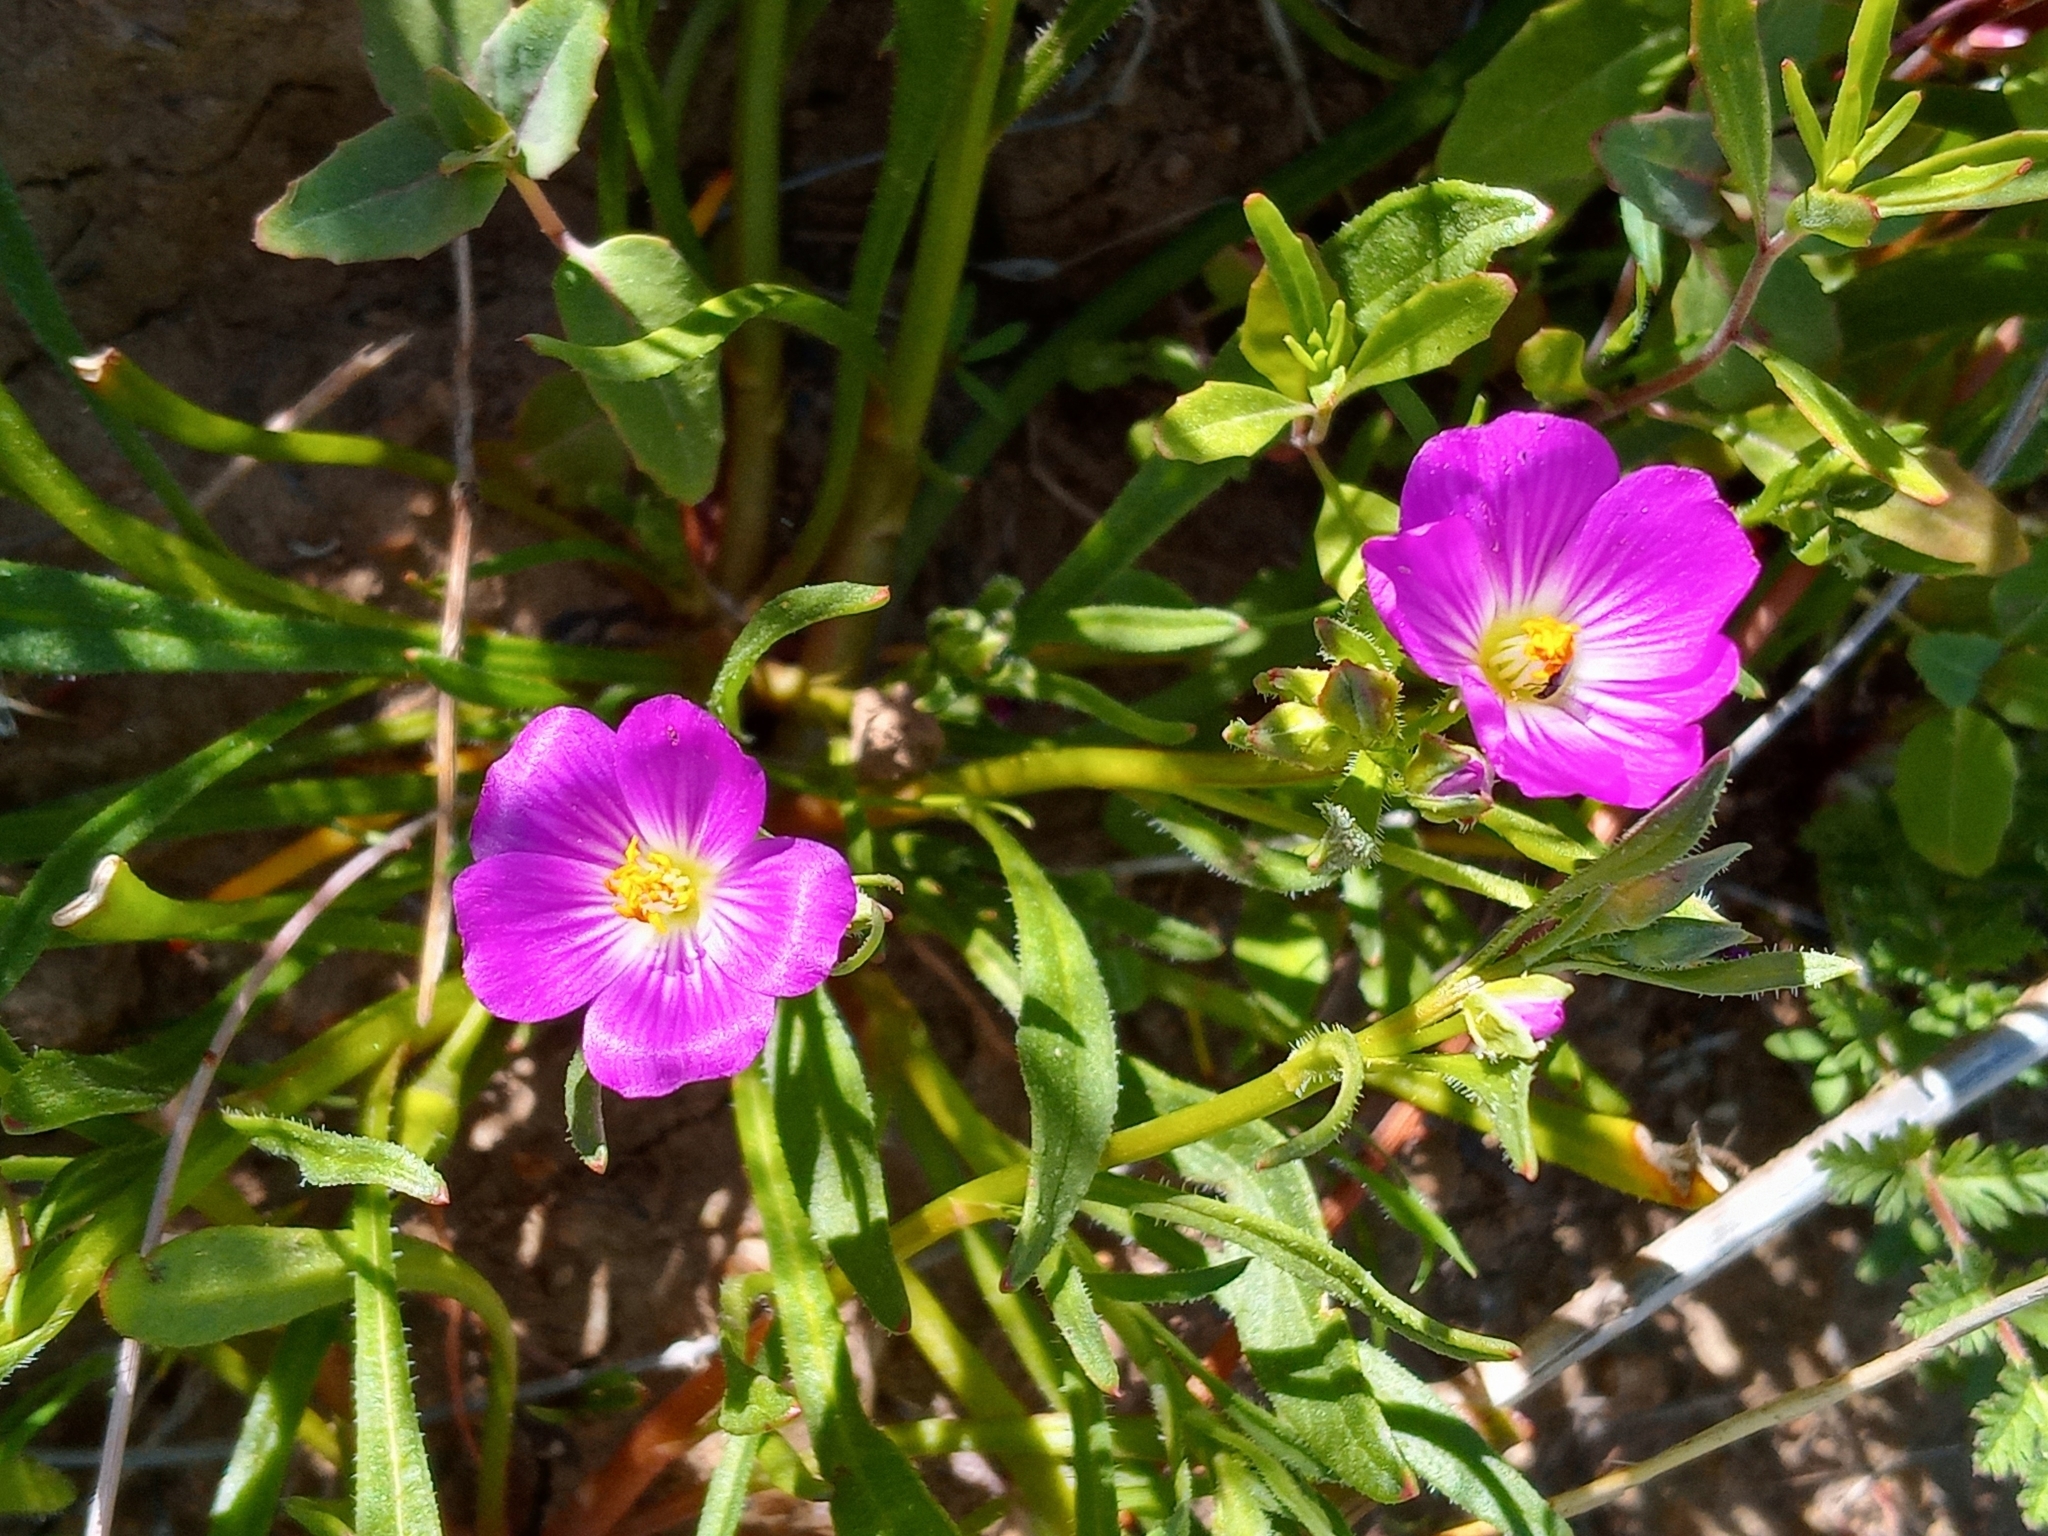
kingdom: Plantae
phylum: Tracheophyta
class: Magnoliopsida
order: Caryophyllales
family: Montiaceae
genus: Calandrinia
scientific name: Calandrinia menziesii
